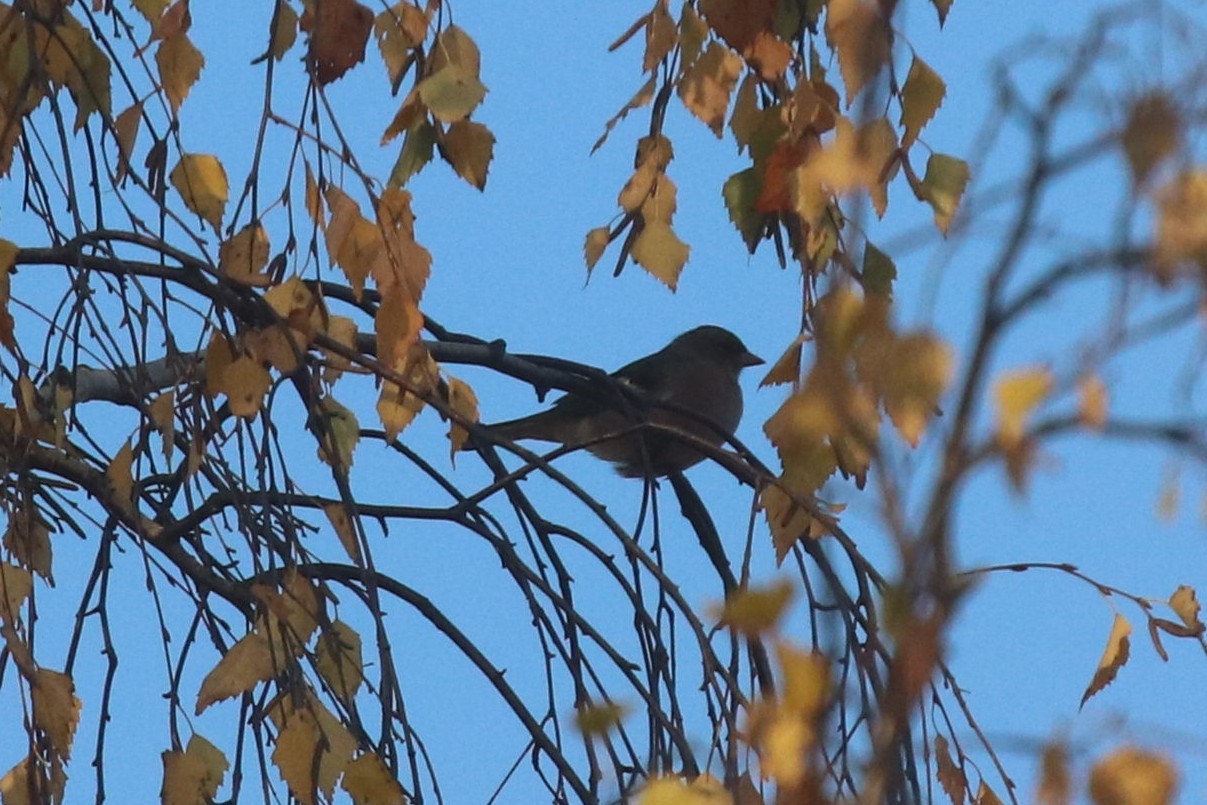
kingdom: Animalia
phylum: Chordata
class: Aves
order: Passeriformes
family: Fringillidae
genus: Fringilla
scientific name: Fringilla coelebs
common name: Common chaffinch
